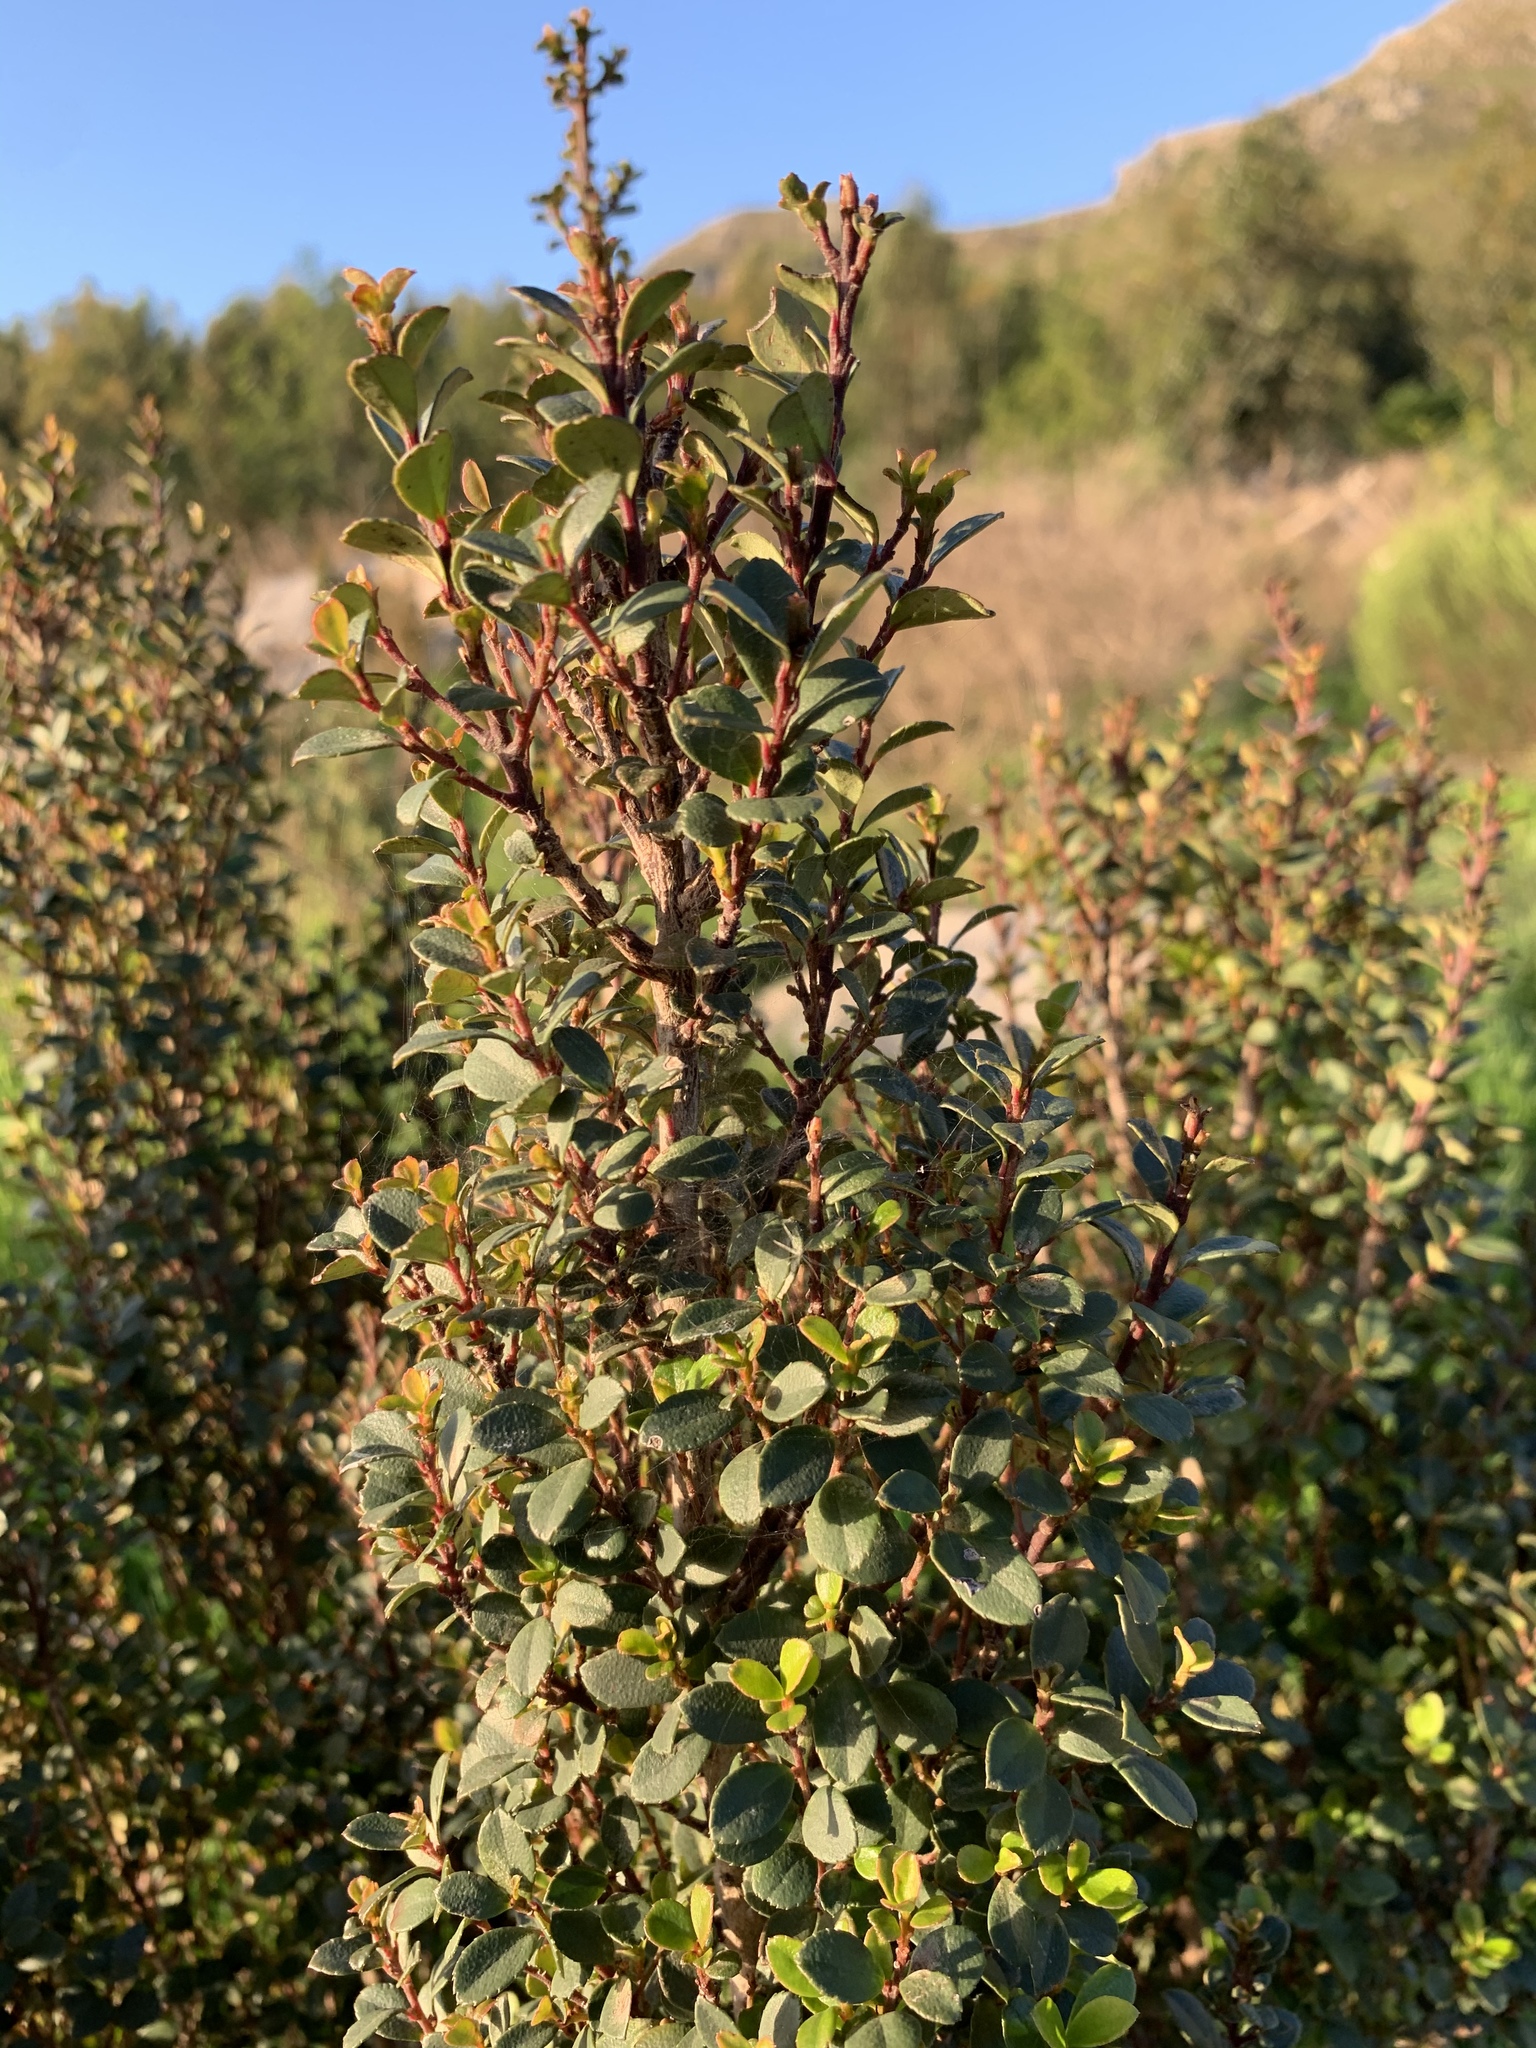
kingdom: Plantae
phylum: Tracheophyta
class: Magnoliopsida
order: Ericales
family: Primulaceae
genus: Myrsine
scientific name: Myrsine africana
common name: African-boxwood
